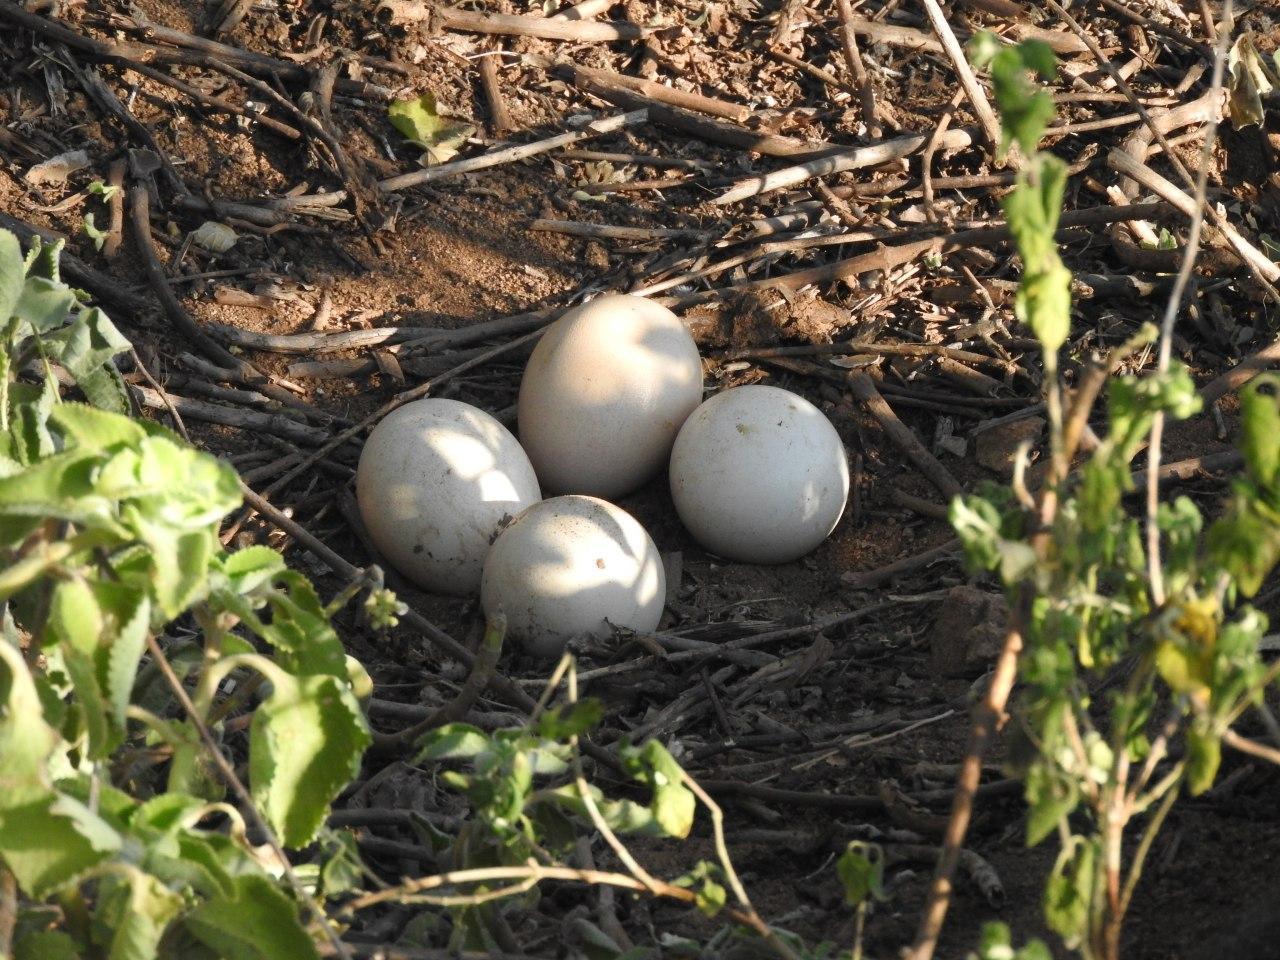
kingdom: Animalia
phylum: Chordata
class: Aves
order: Galliformes
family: Phasianidae
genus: Pavo
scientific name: Pavo cristatus
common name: Indian peafowl
